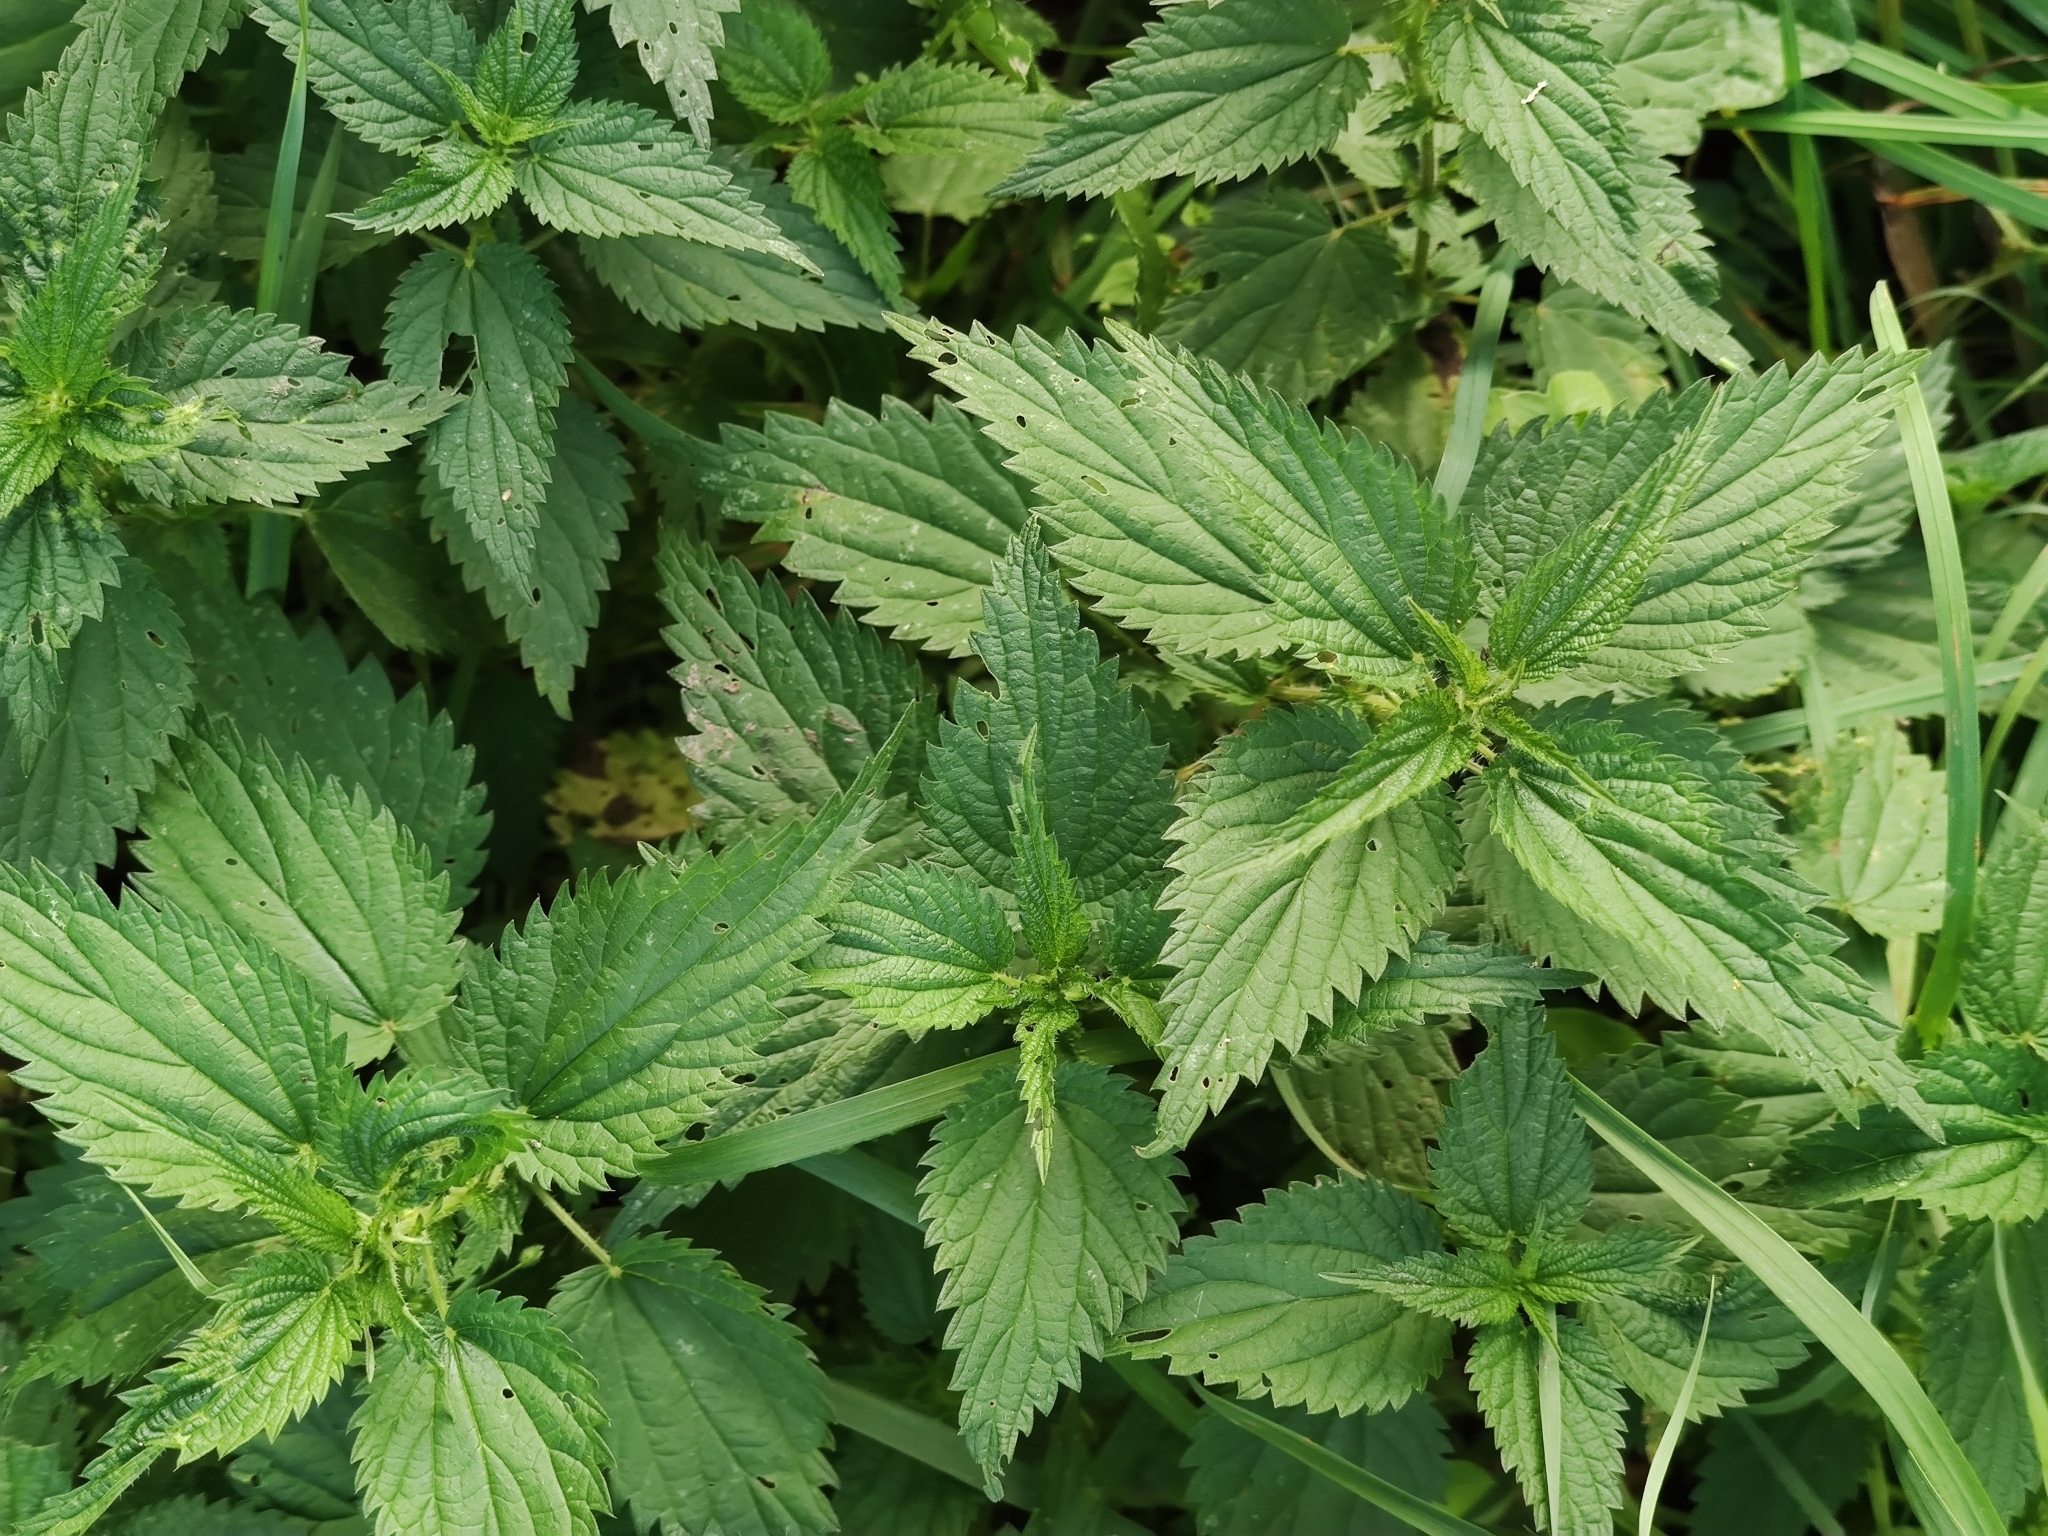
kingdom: Plantae
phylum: Tracheophyta
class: Magnoliopsida
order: Rosales
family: Urticaceae
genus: Urtica
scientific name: Urtica dioica
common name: Common nettle
